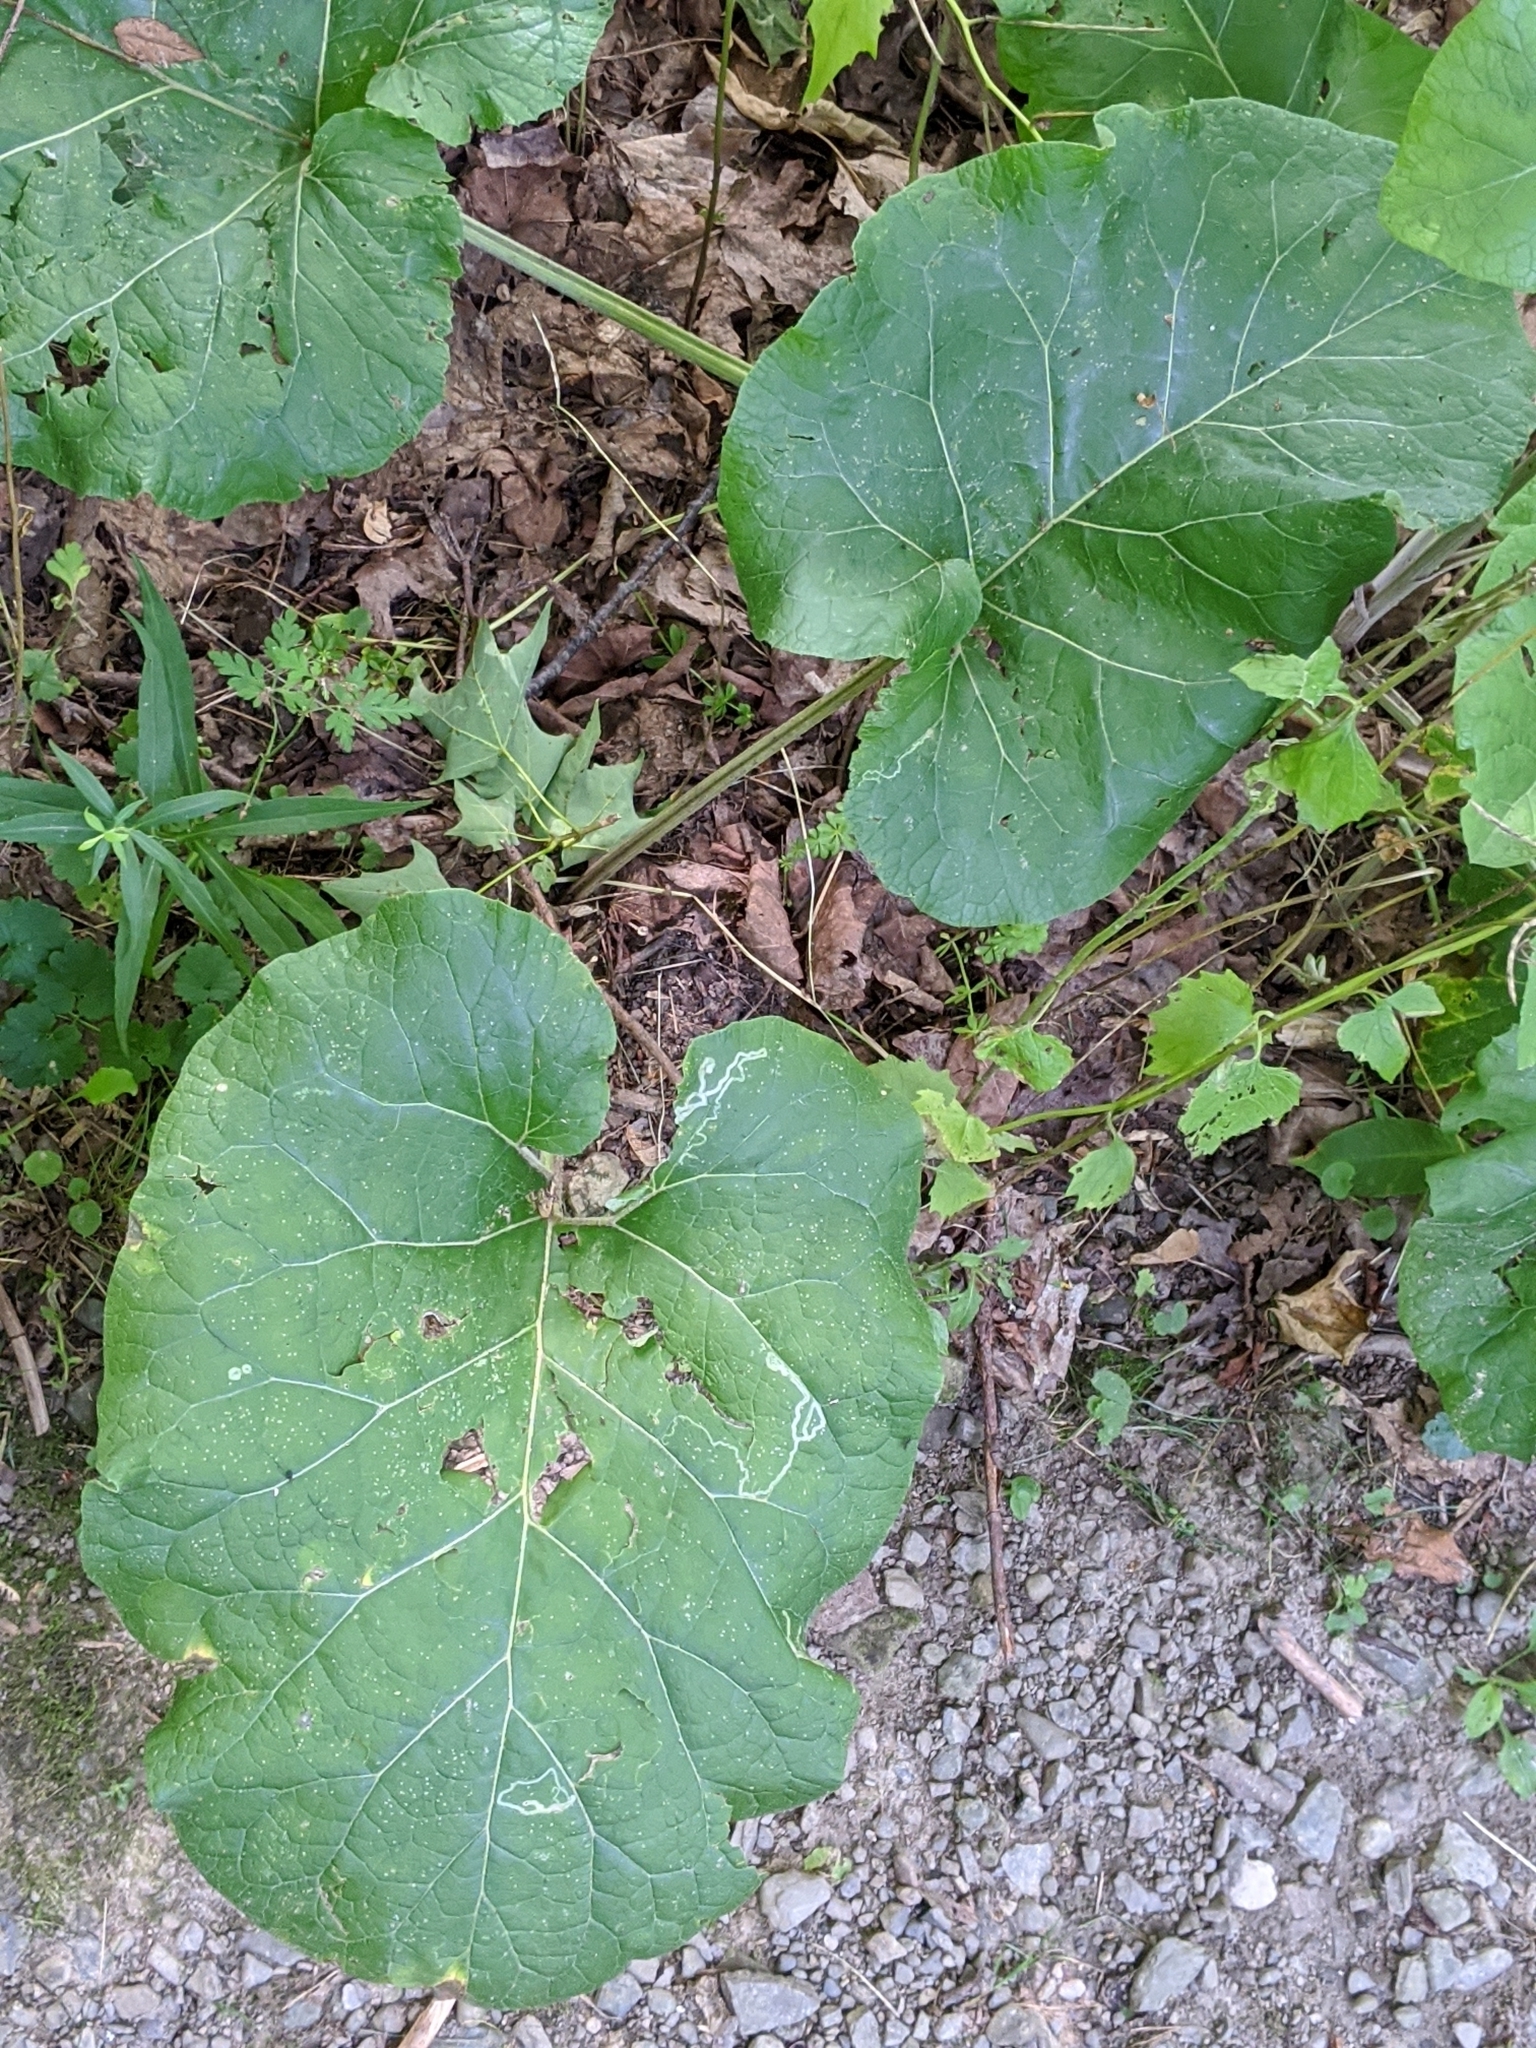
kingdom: Plantae
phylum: Tracheophyta
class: Magnoliopsida
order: Asterales
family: Asteraceae
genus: Arctium
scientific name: Arctium
